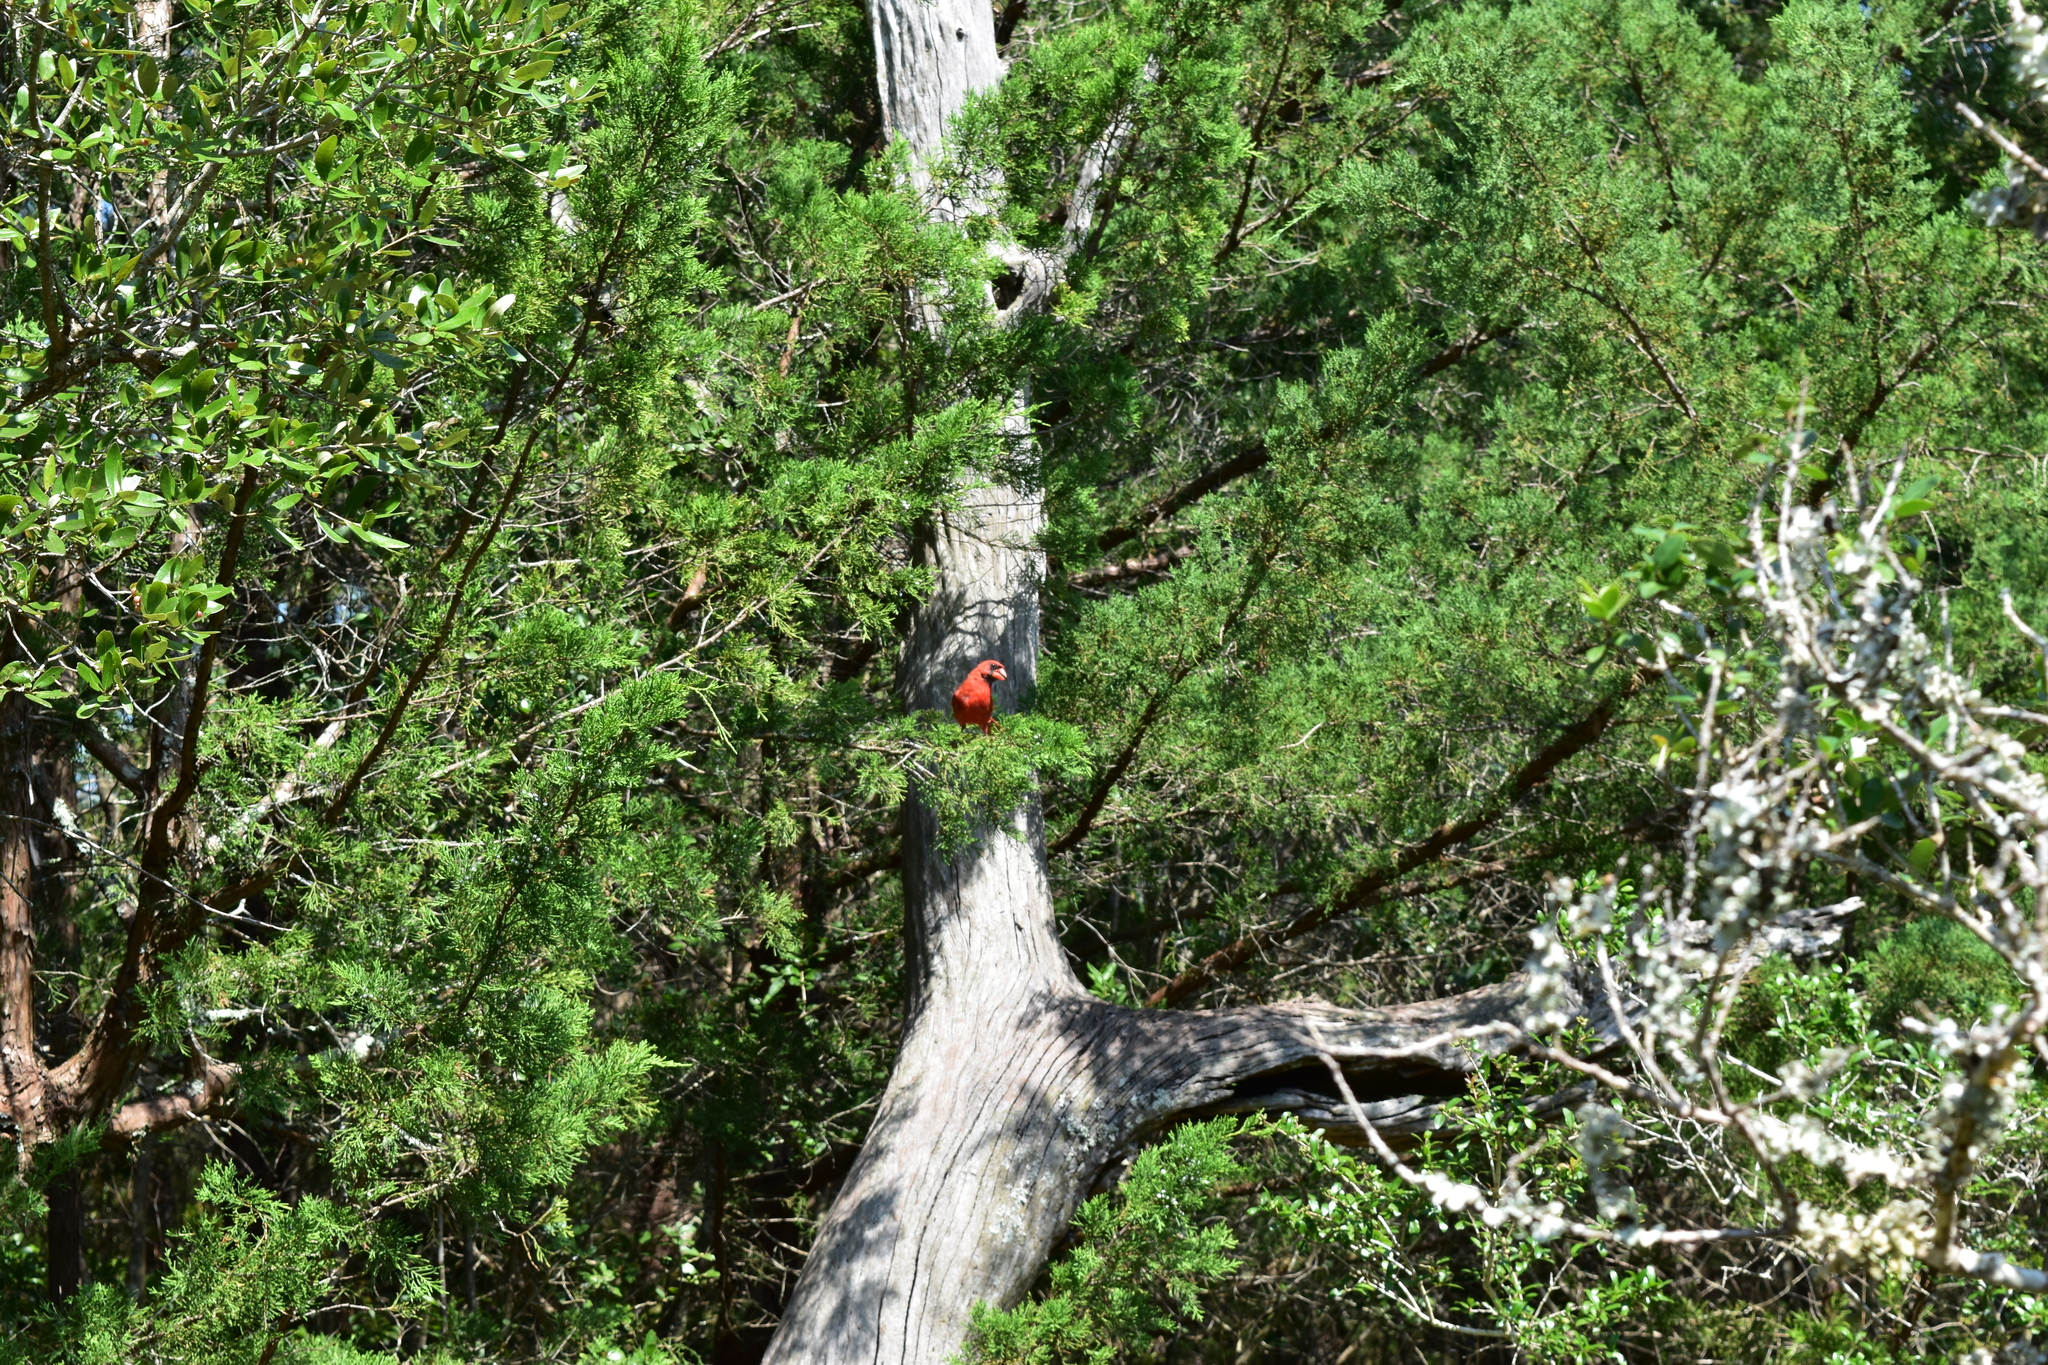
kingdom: Animalia
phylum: Chordata
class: Aves
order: Passeriformes
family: Cardinalidae
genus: Cardinalis
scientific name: Cardinalis cardinalis
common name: Northern cardinal
